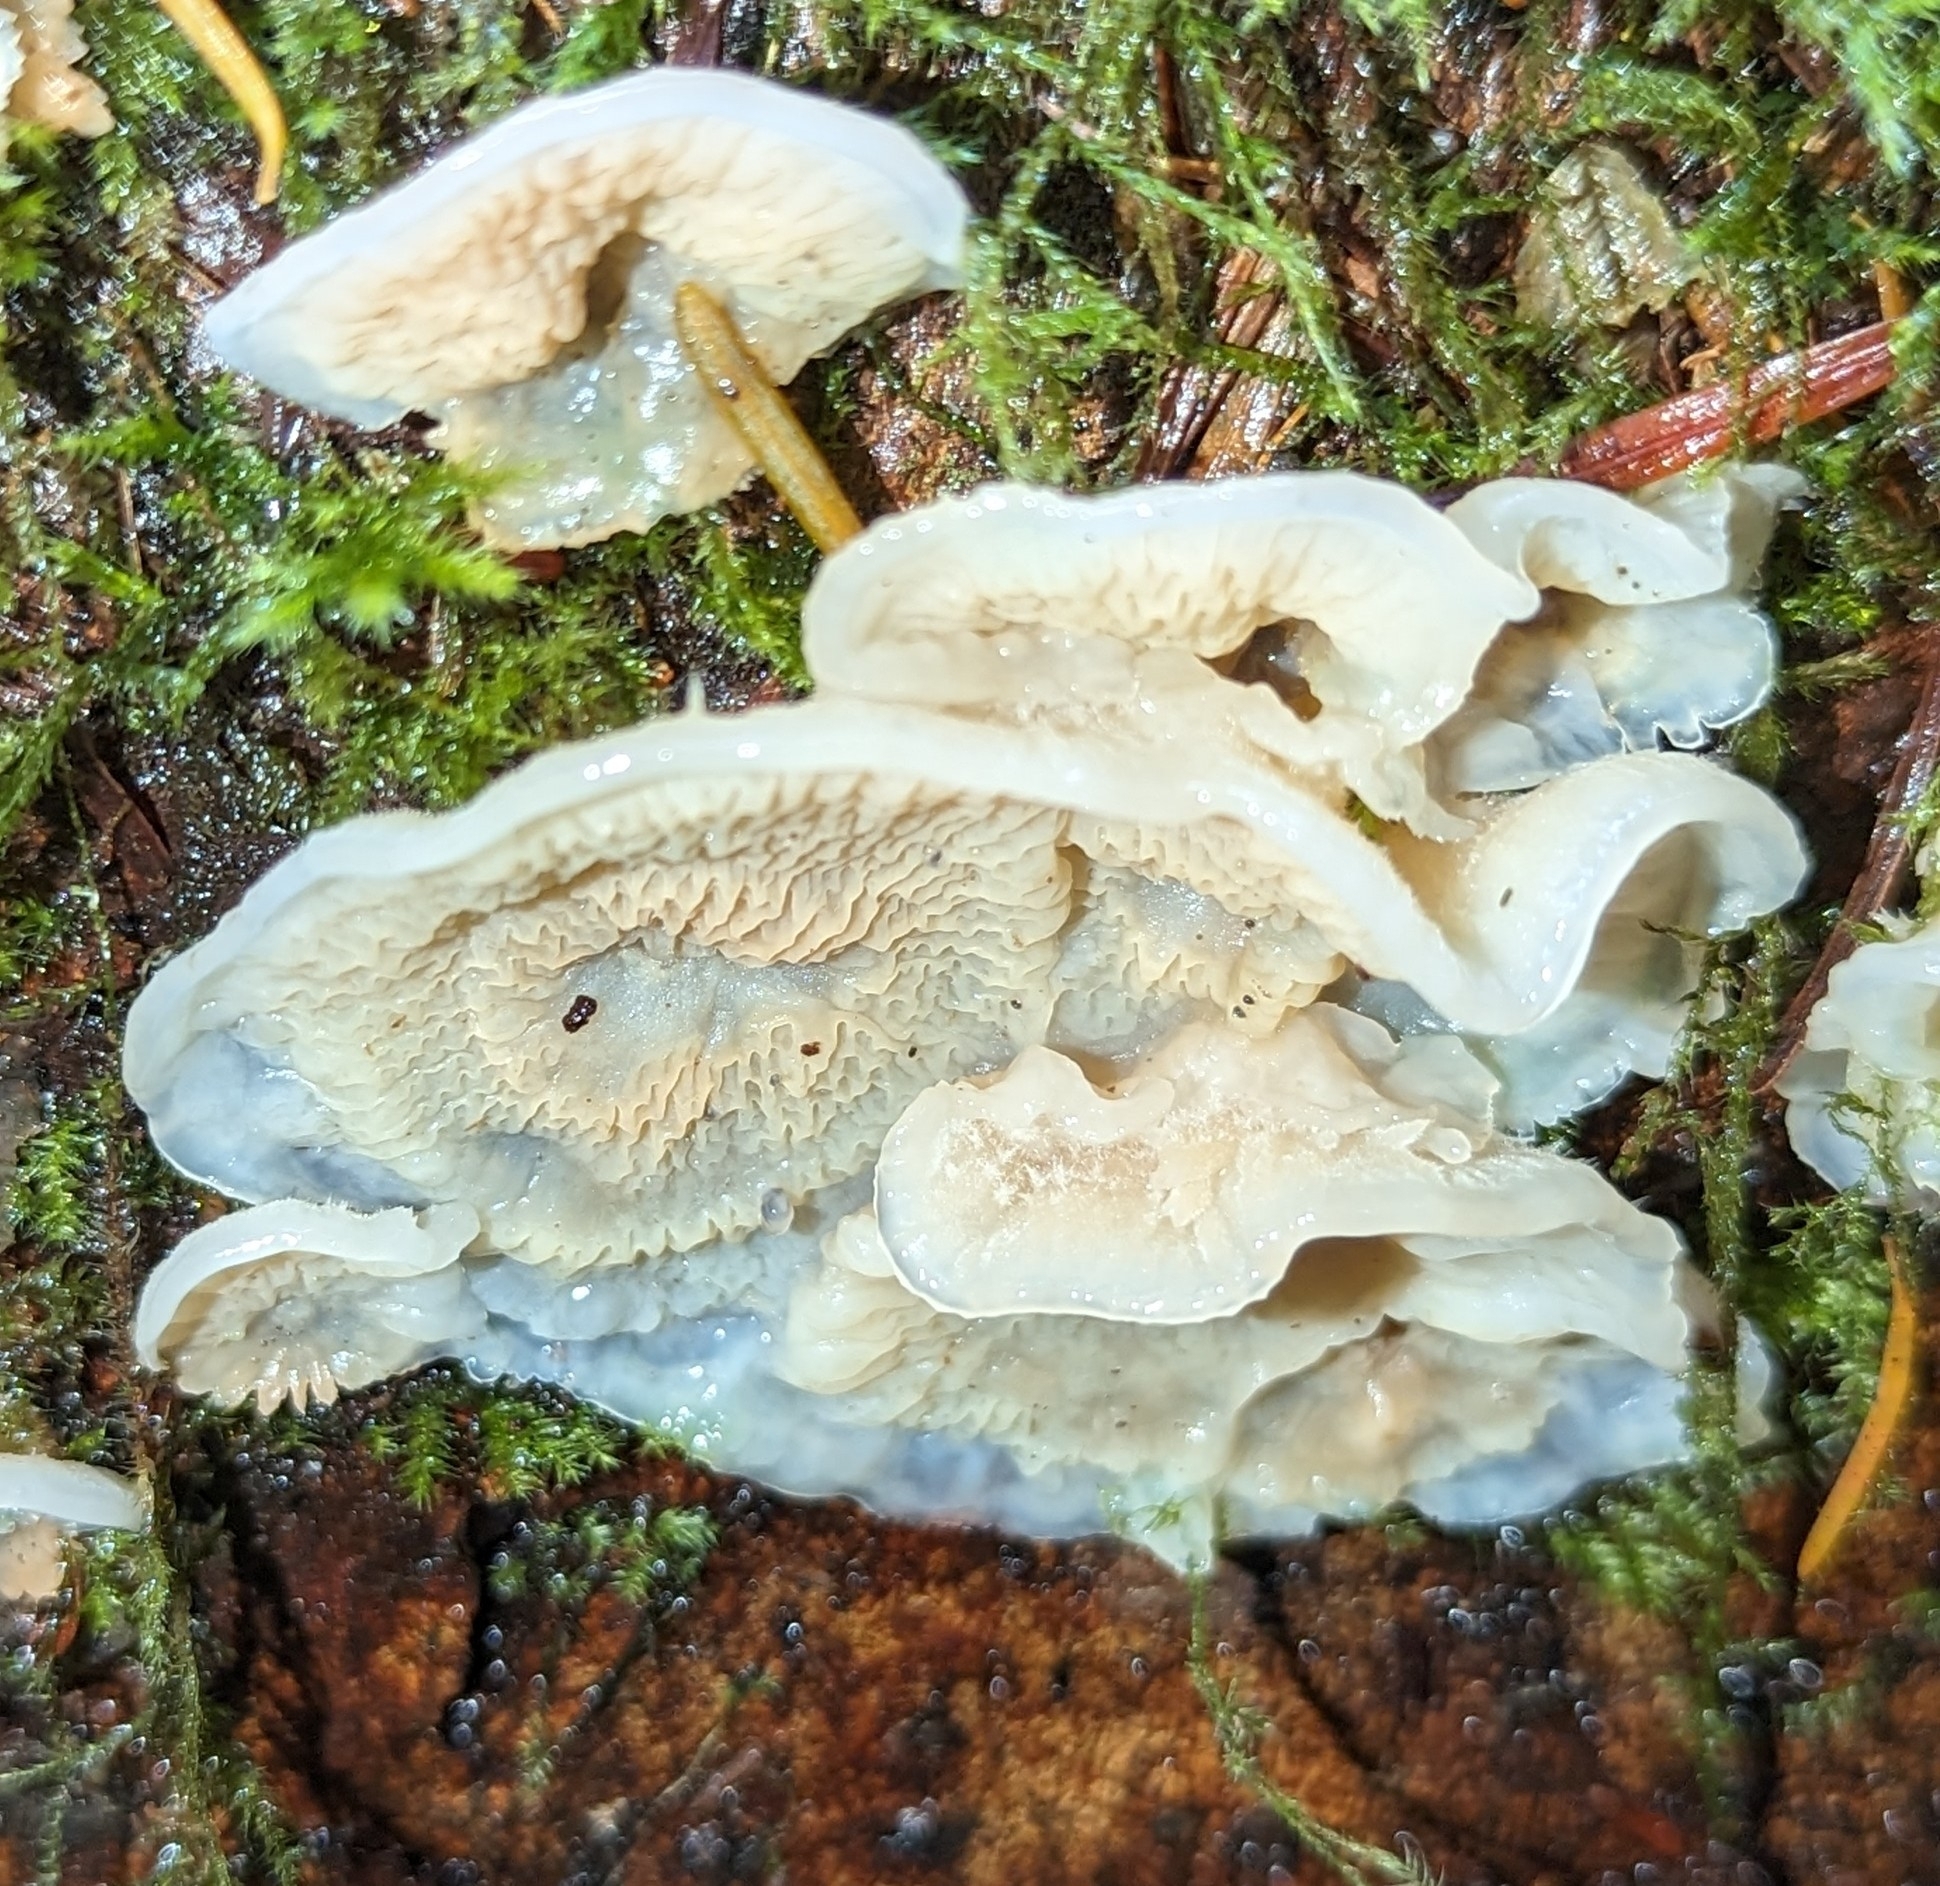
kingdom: Fungi
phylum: Basidiomycota
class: Agaricomycetes
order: Polyporales
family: Meruliaceae
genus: Phlebia
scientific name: Phlebia tremellosa
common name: Jelly rot
